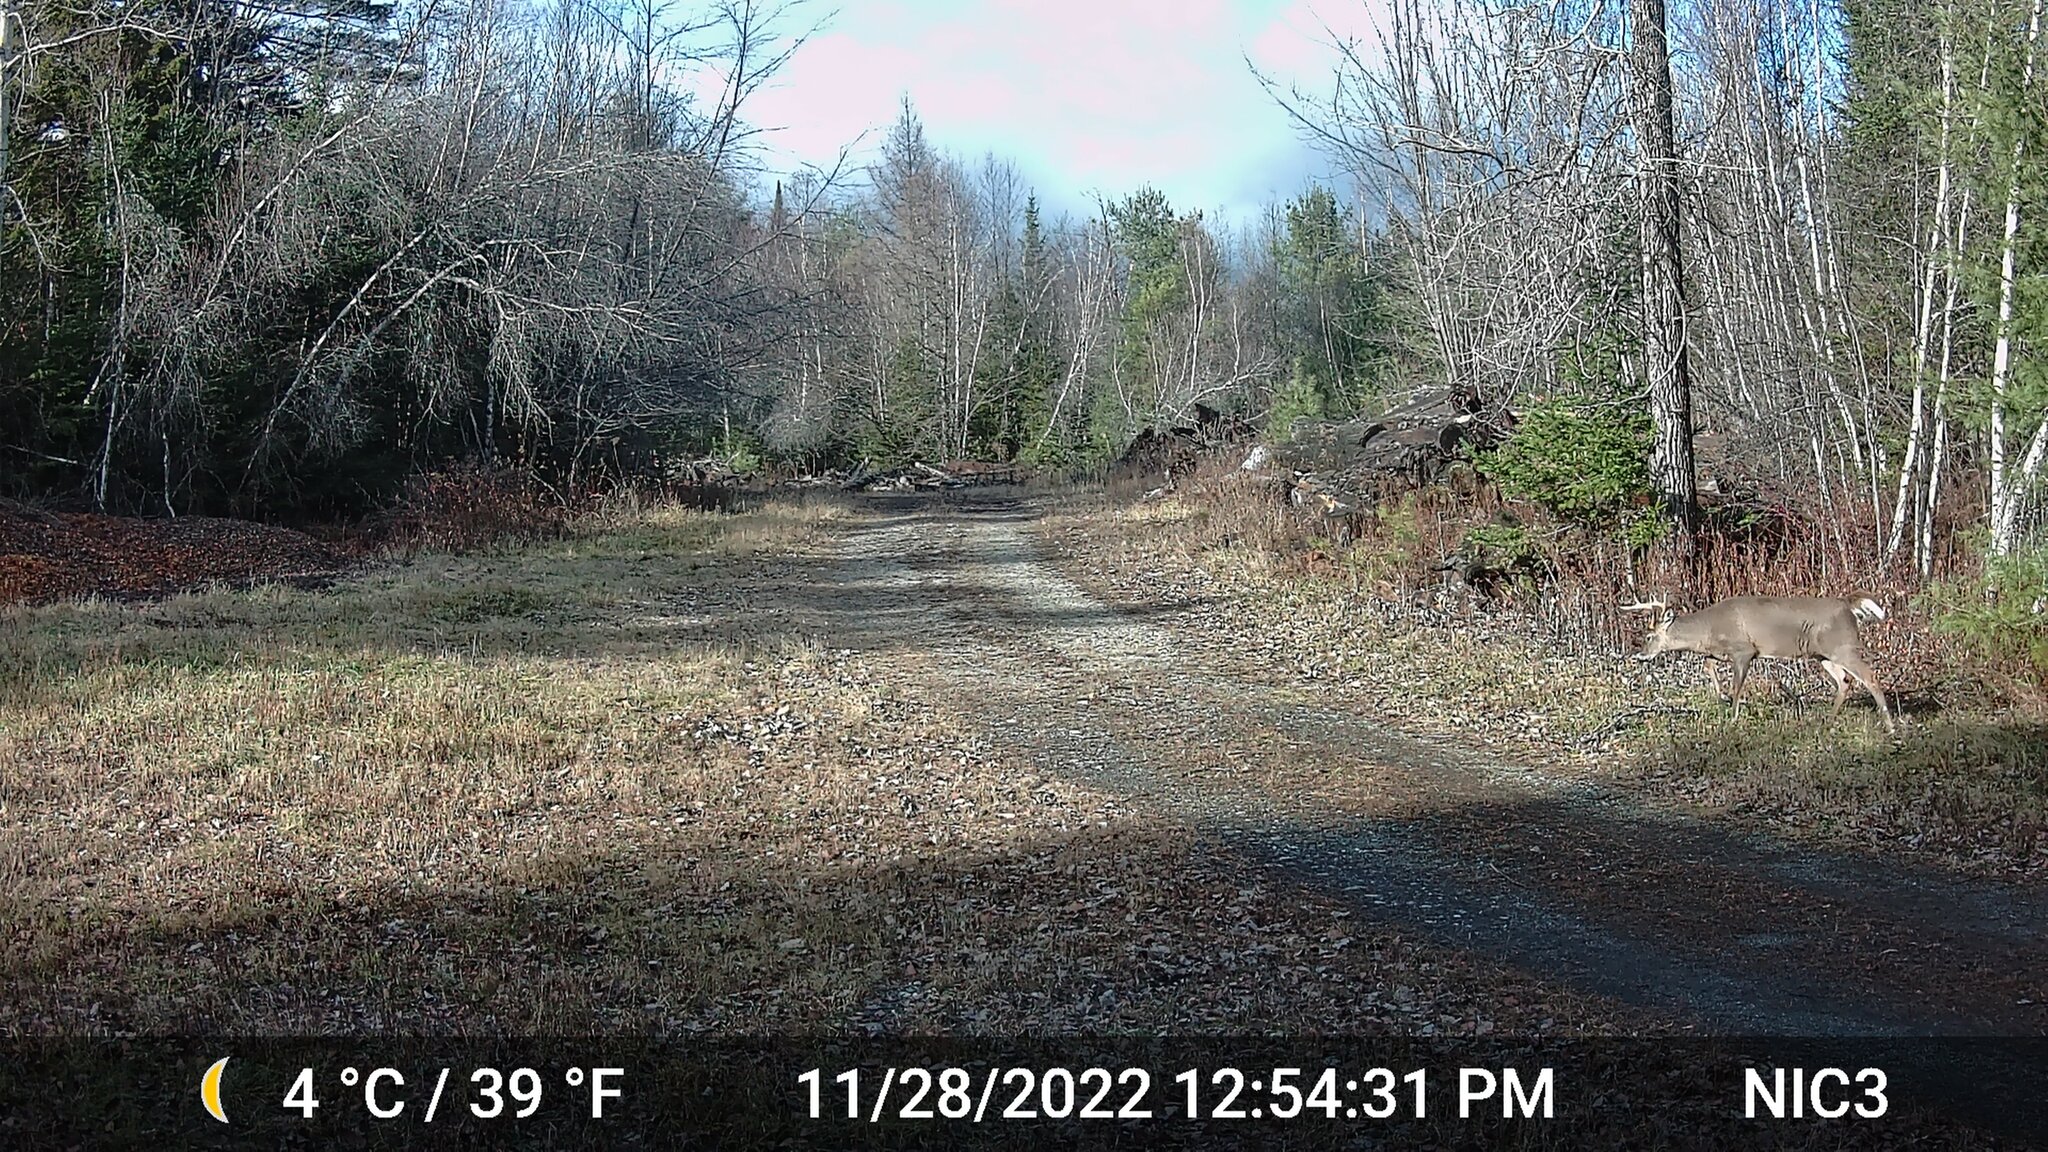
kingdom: Animalia
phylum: Chordata
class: Mammalia
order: Artiodactyla
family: Cervidae
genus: Odocoileus
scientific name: Odocoileus virginianus
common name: White-tailed deer
